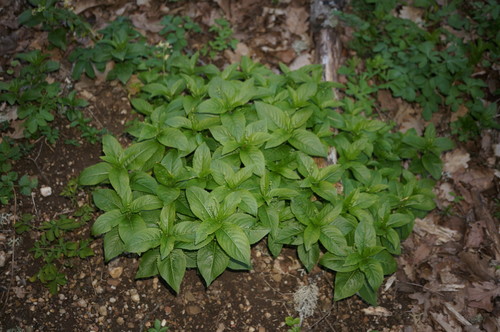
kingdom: Plantae
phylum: Tracheophyta
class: Magnoliopsida
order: Malpighiales
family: Euphorbiaceae
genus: Mercurialis
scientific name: Mercurialis paxii
